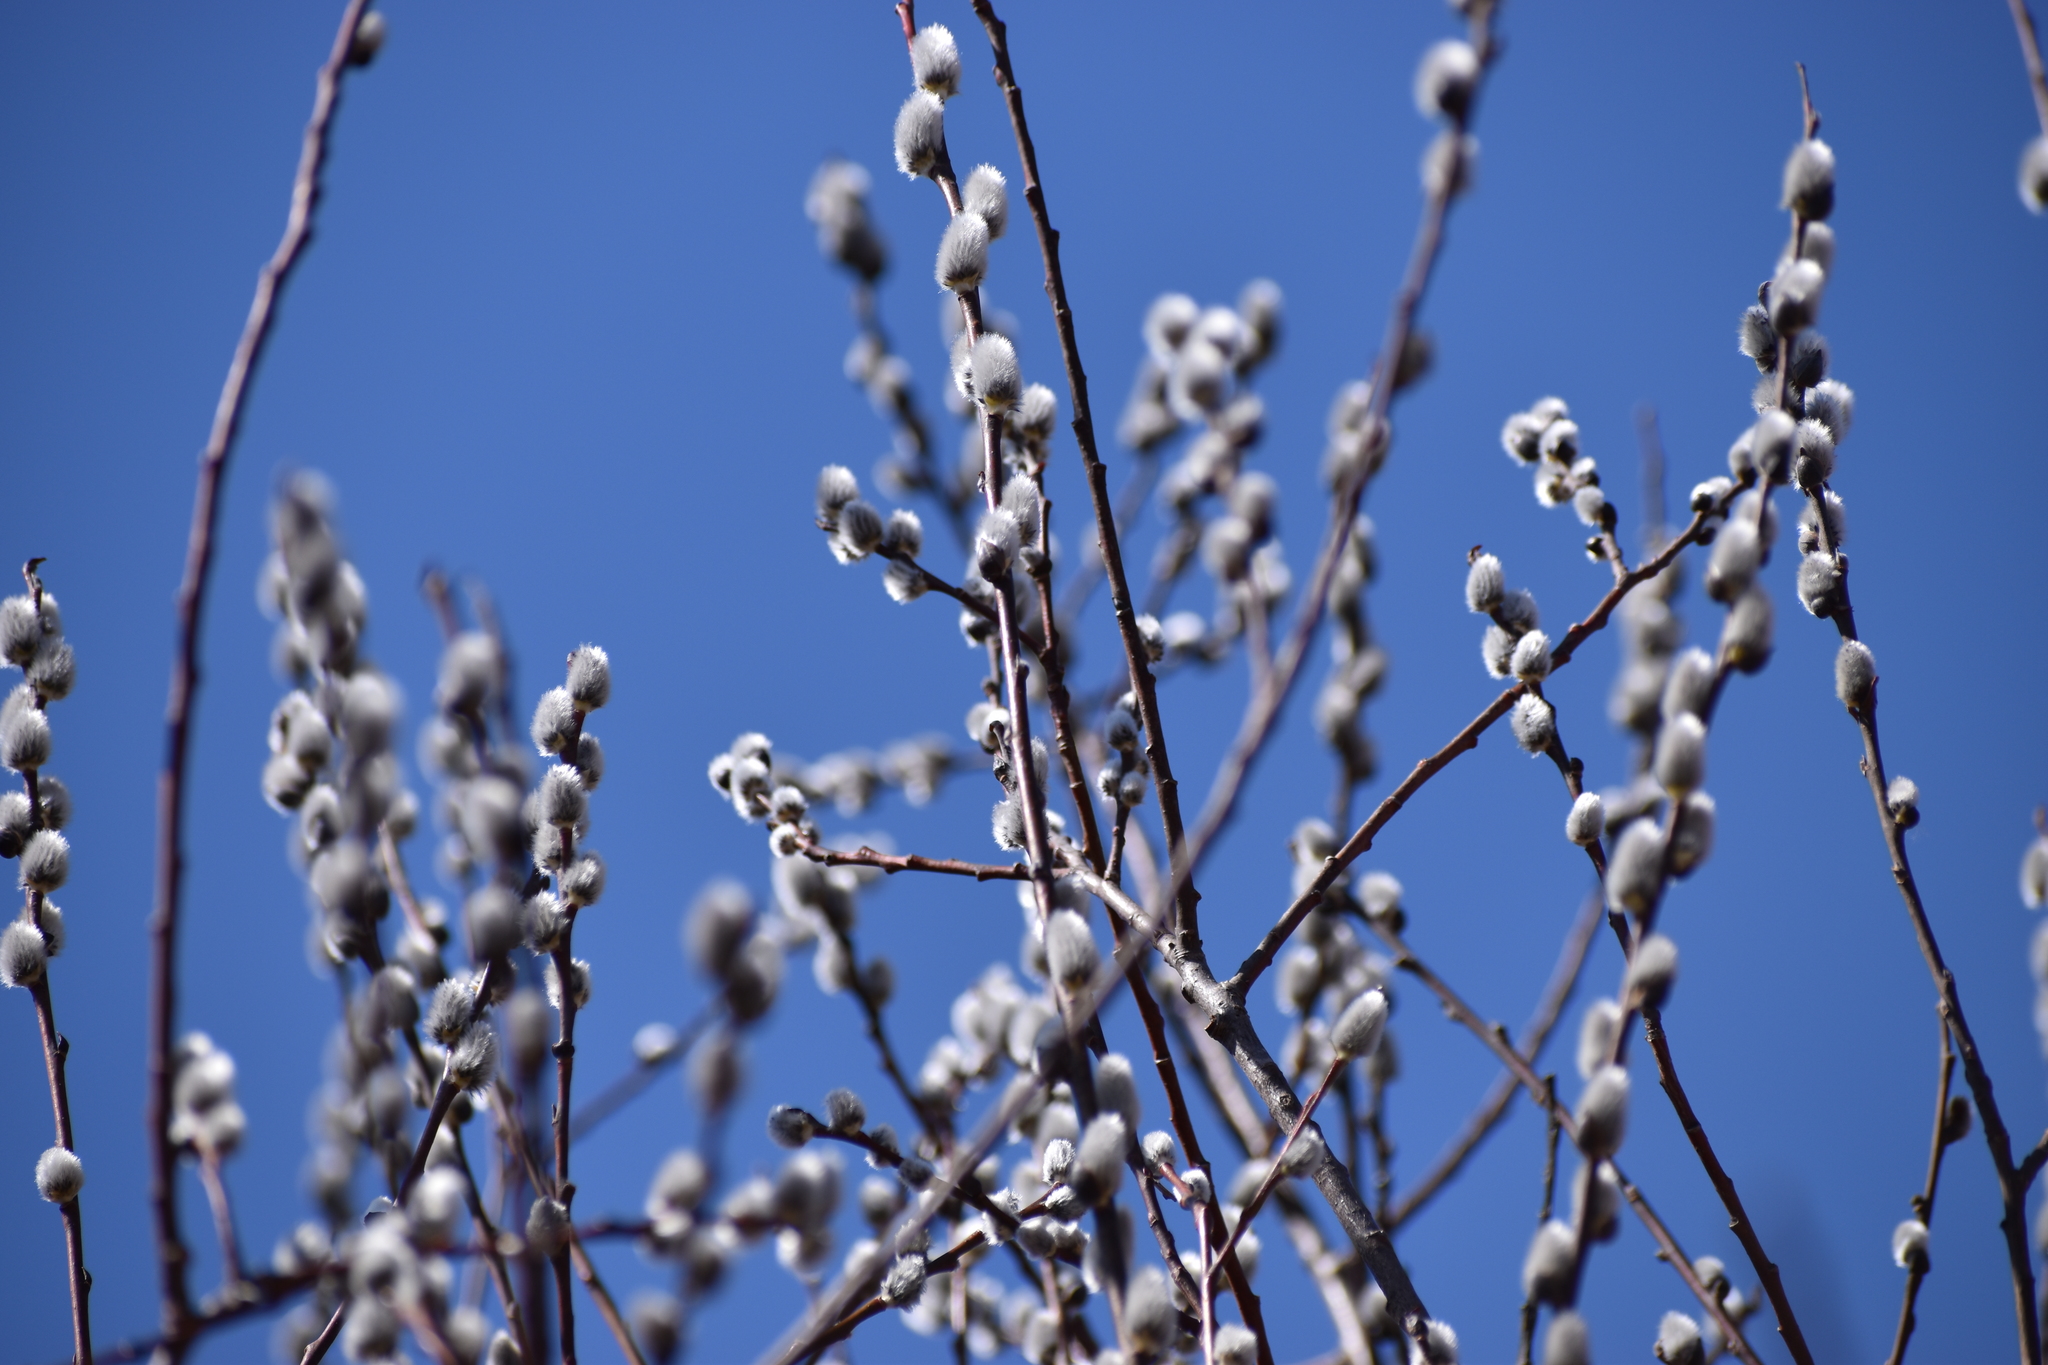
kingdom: Plantae
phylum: Tracheophyta
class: Magnoliopsida
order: Malpighiales
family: Salicaceae
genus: Salix
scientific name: Salix discolor
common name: Glaucous willow
